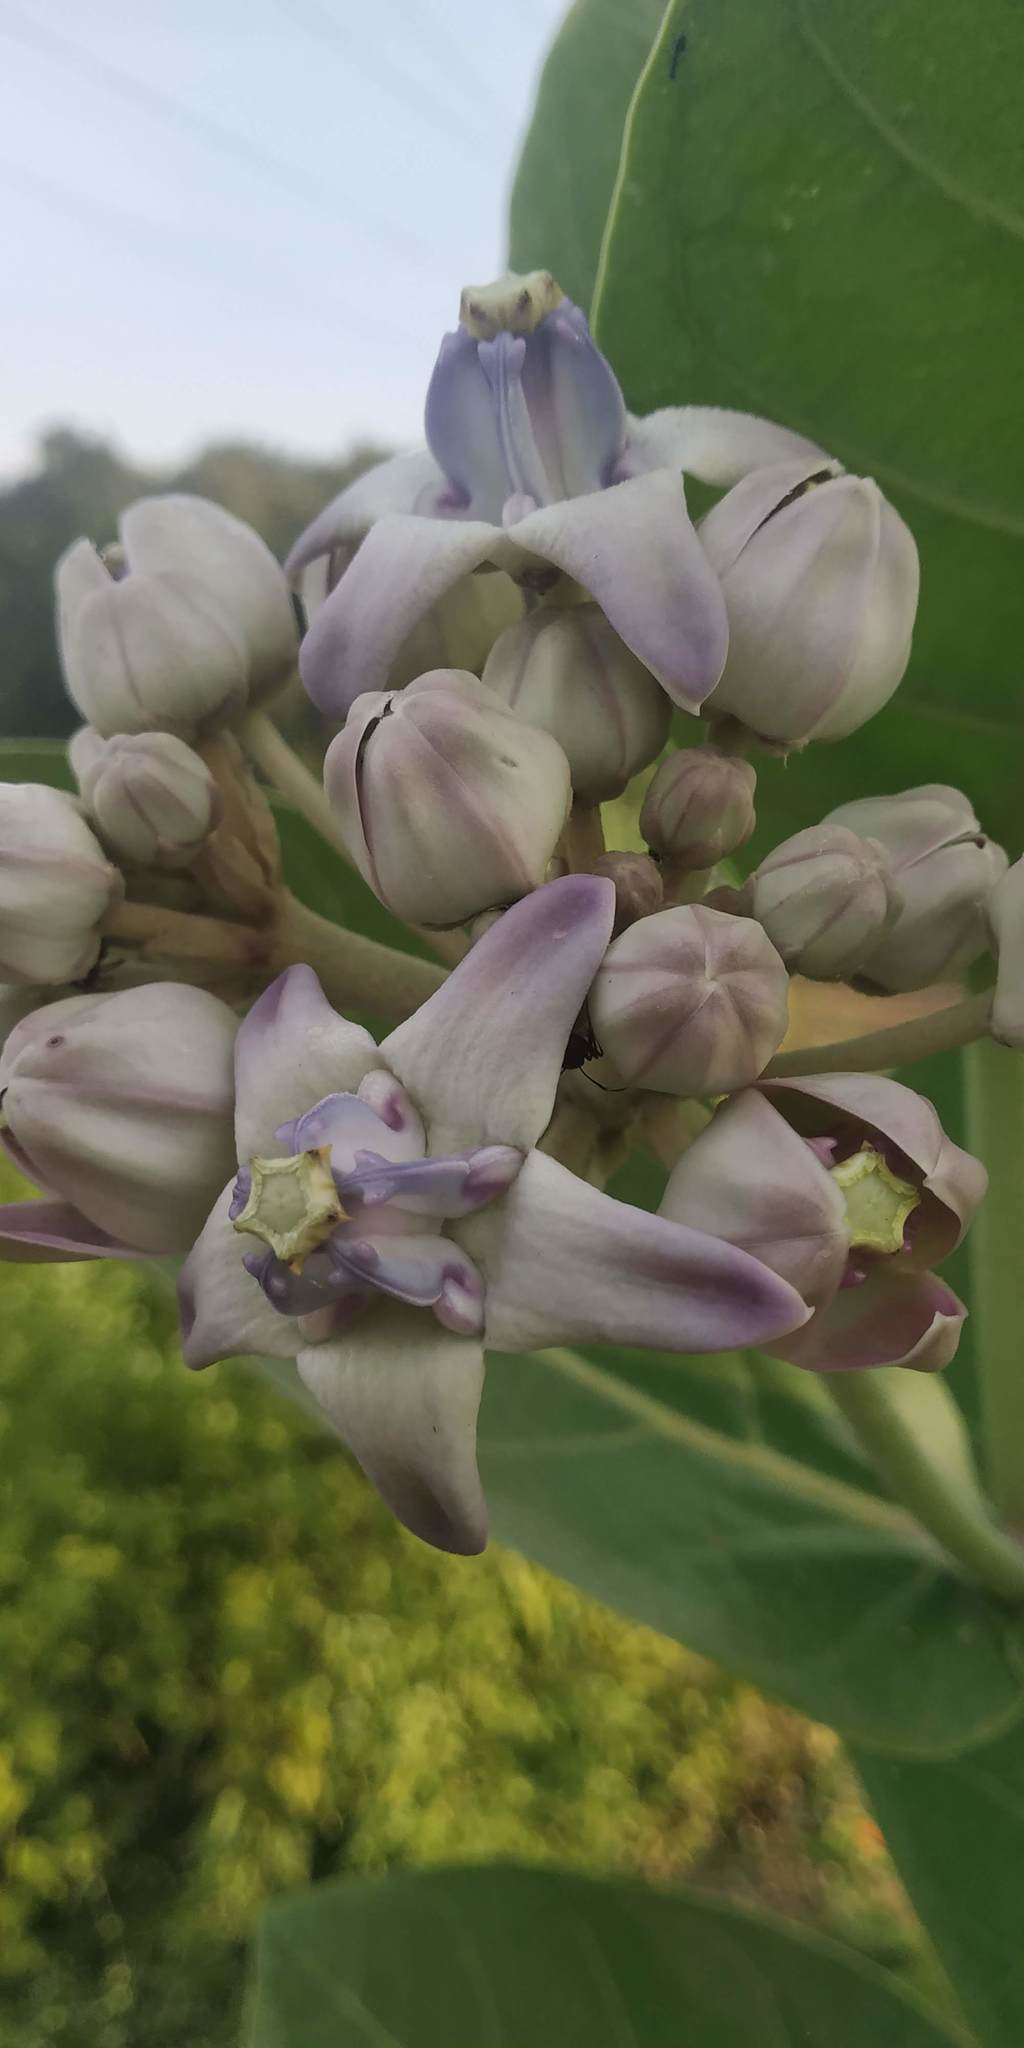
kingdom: Plantae
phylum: Tracheophyta
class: Magnoliopsida
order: Gentianales
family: Apocynaceae
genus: Calotropis
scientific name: Calotropis gigantea
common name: Crown flower
